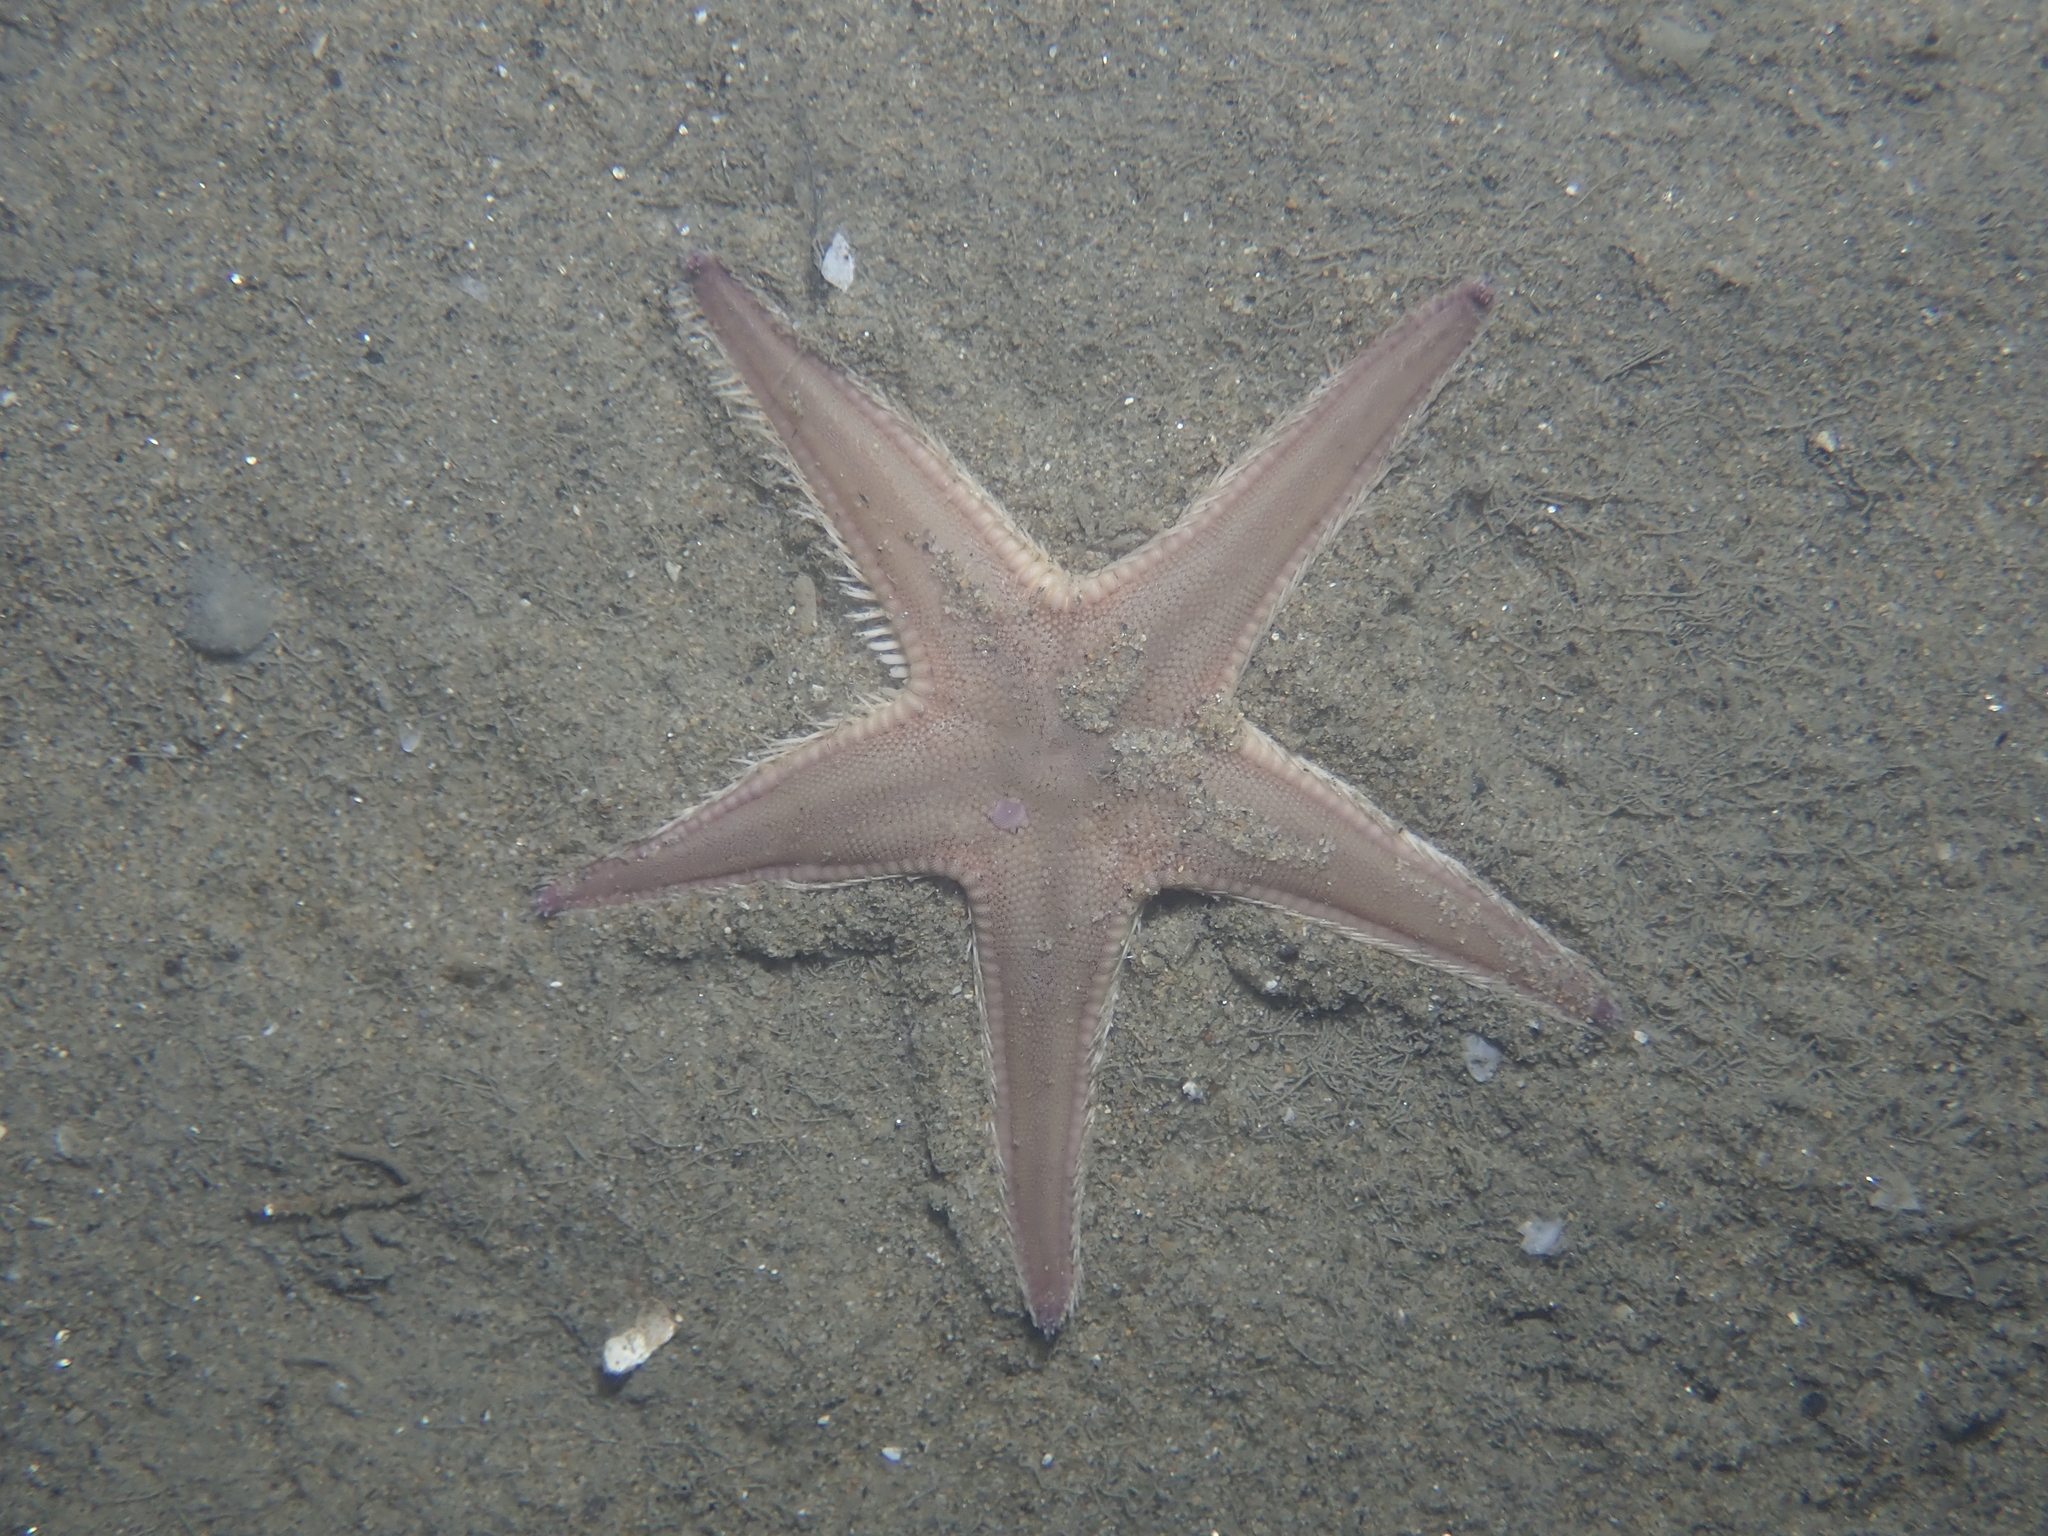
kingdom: Animalia
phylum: Echinodermata
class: Asteroidea
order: Paxillosida
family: Astropectinidae
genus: Astropecten
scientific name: Astropecten irregularis
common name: Sand star
